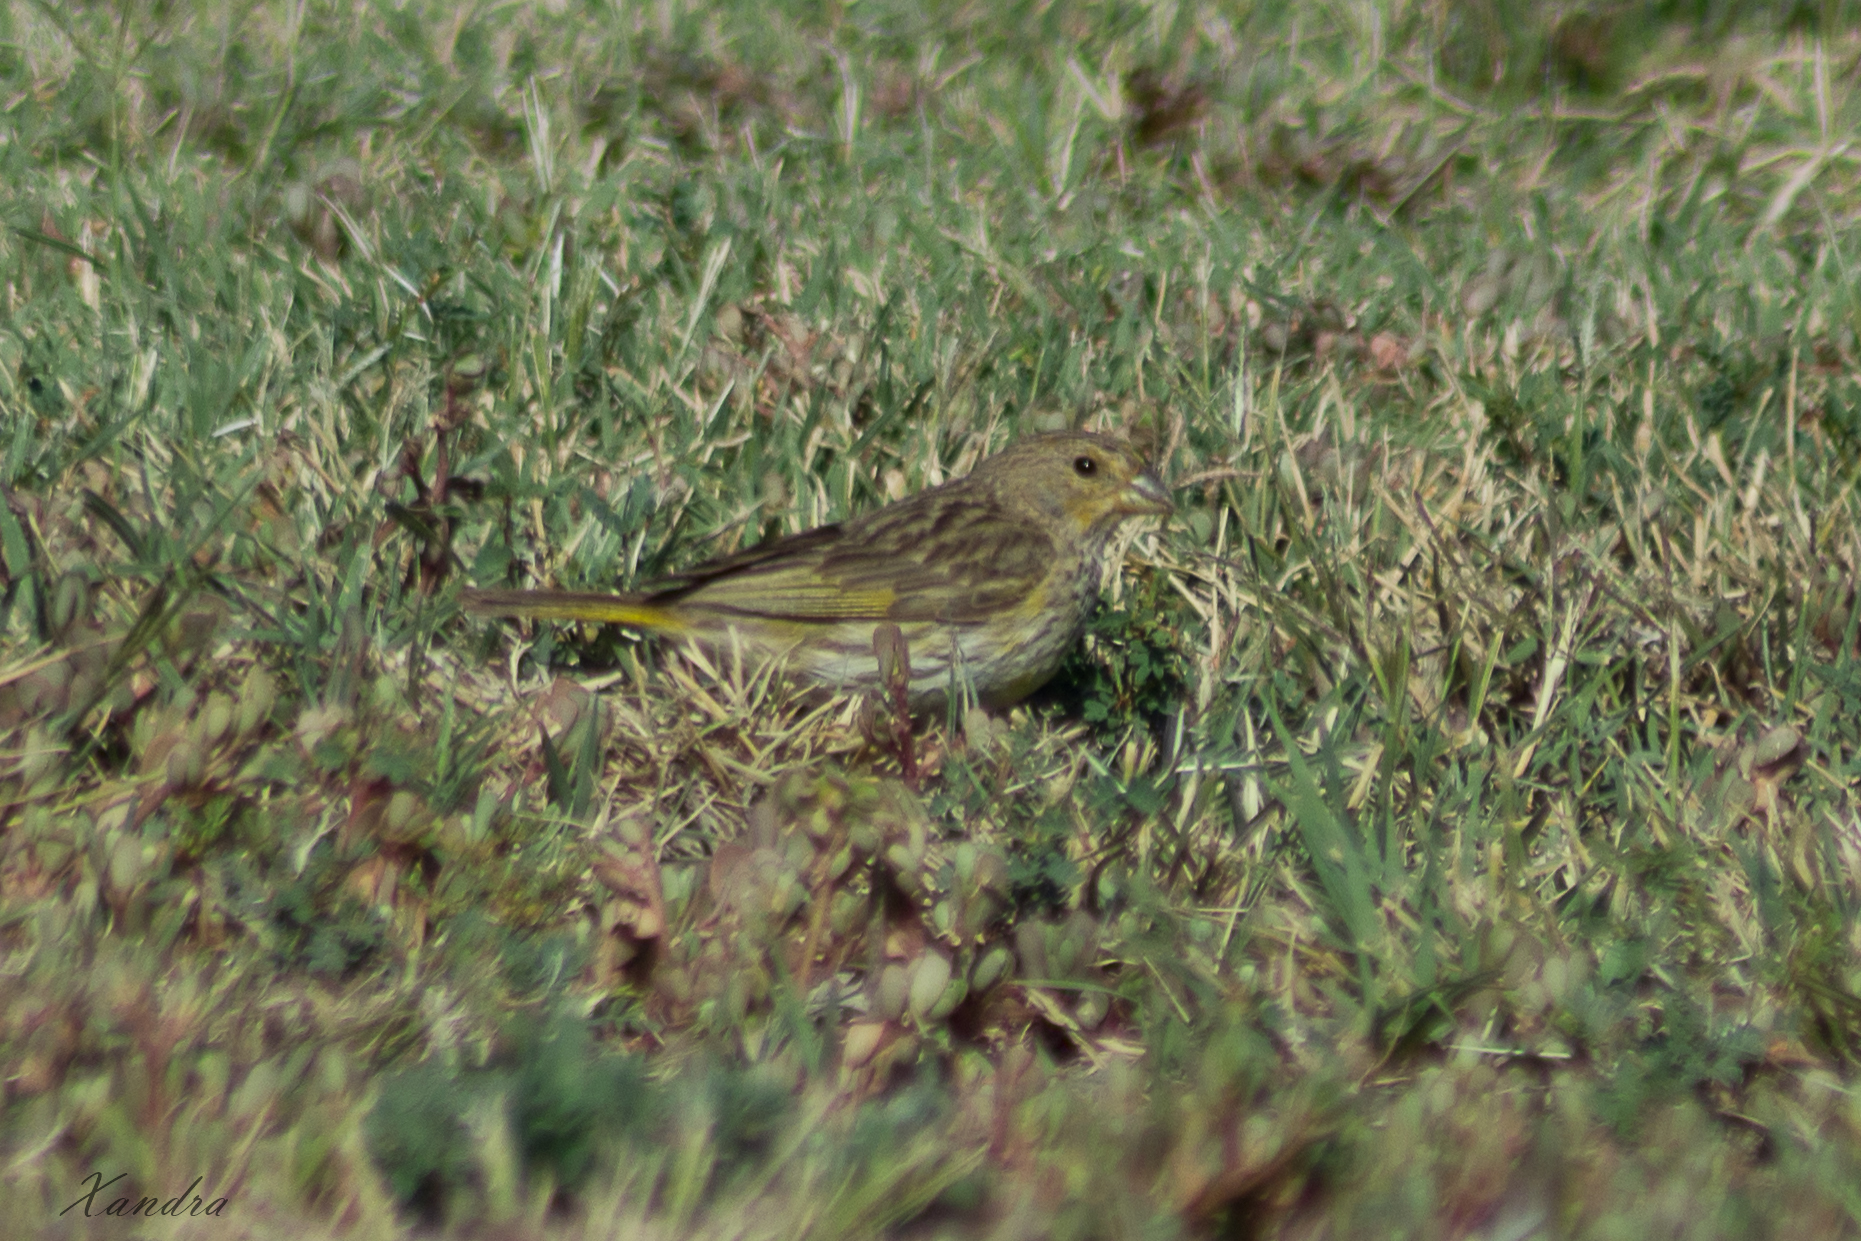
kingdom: Animalia
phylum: Chordata
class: Aves
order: Passeriformes
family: Thraupidae
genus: Sicalis
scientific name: Sicalis flaveola
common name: Saffron finch
